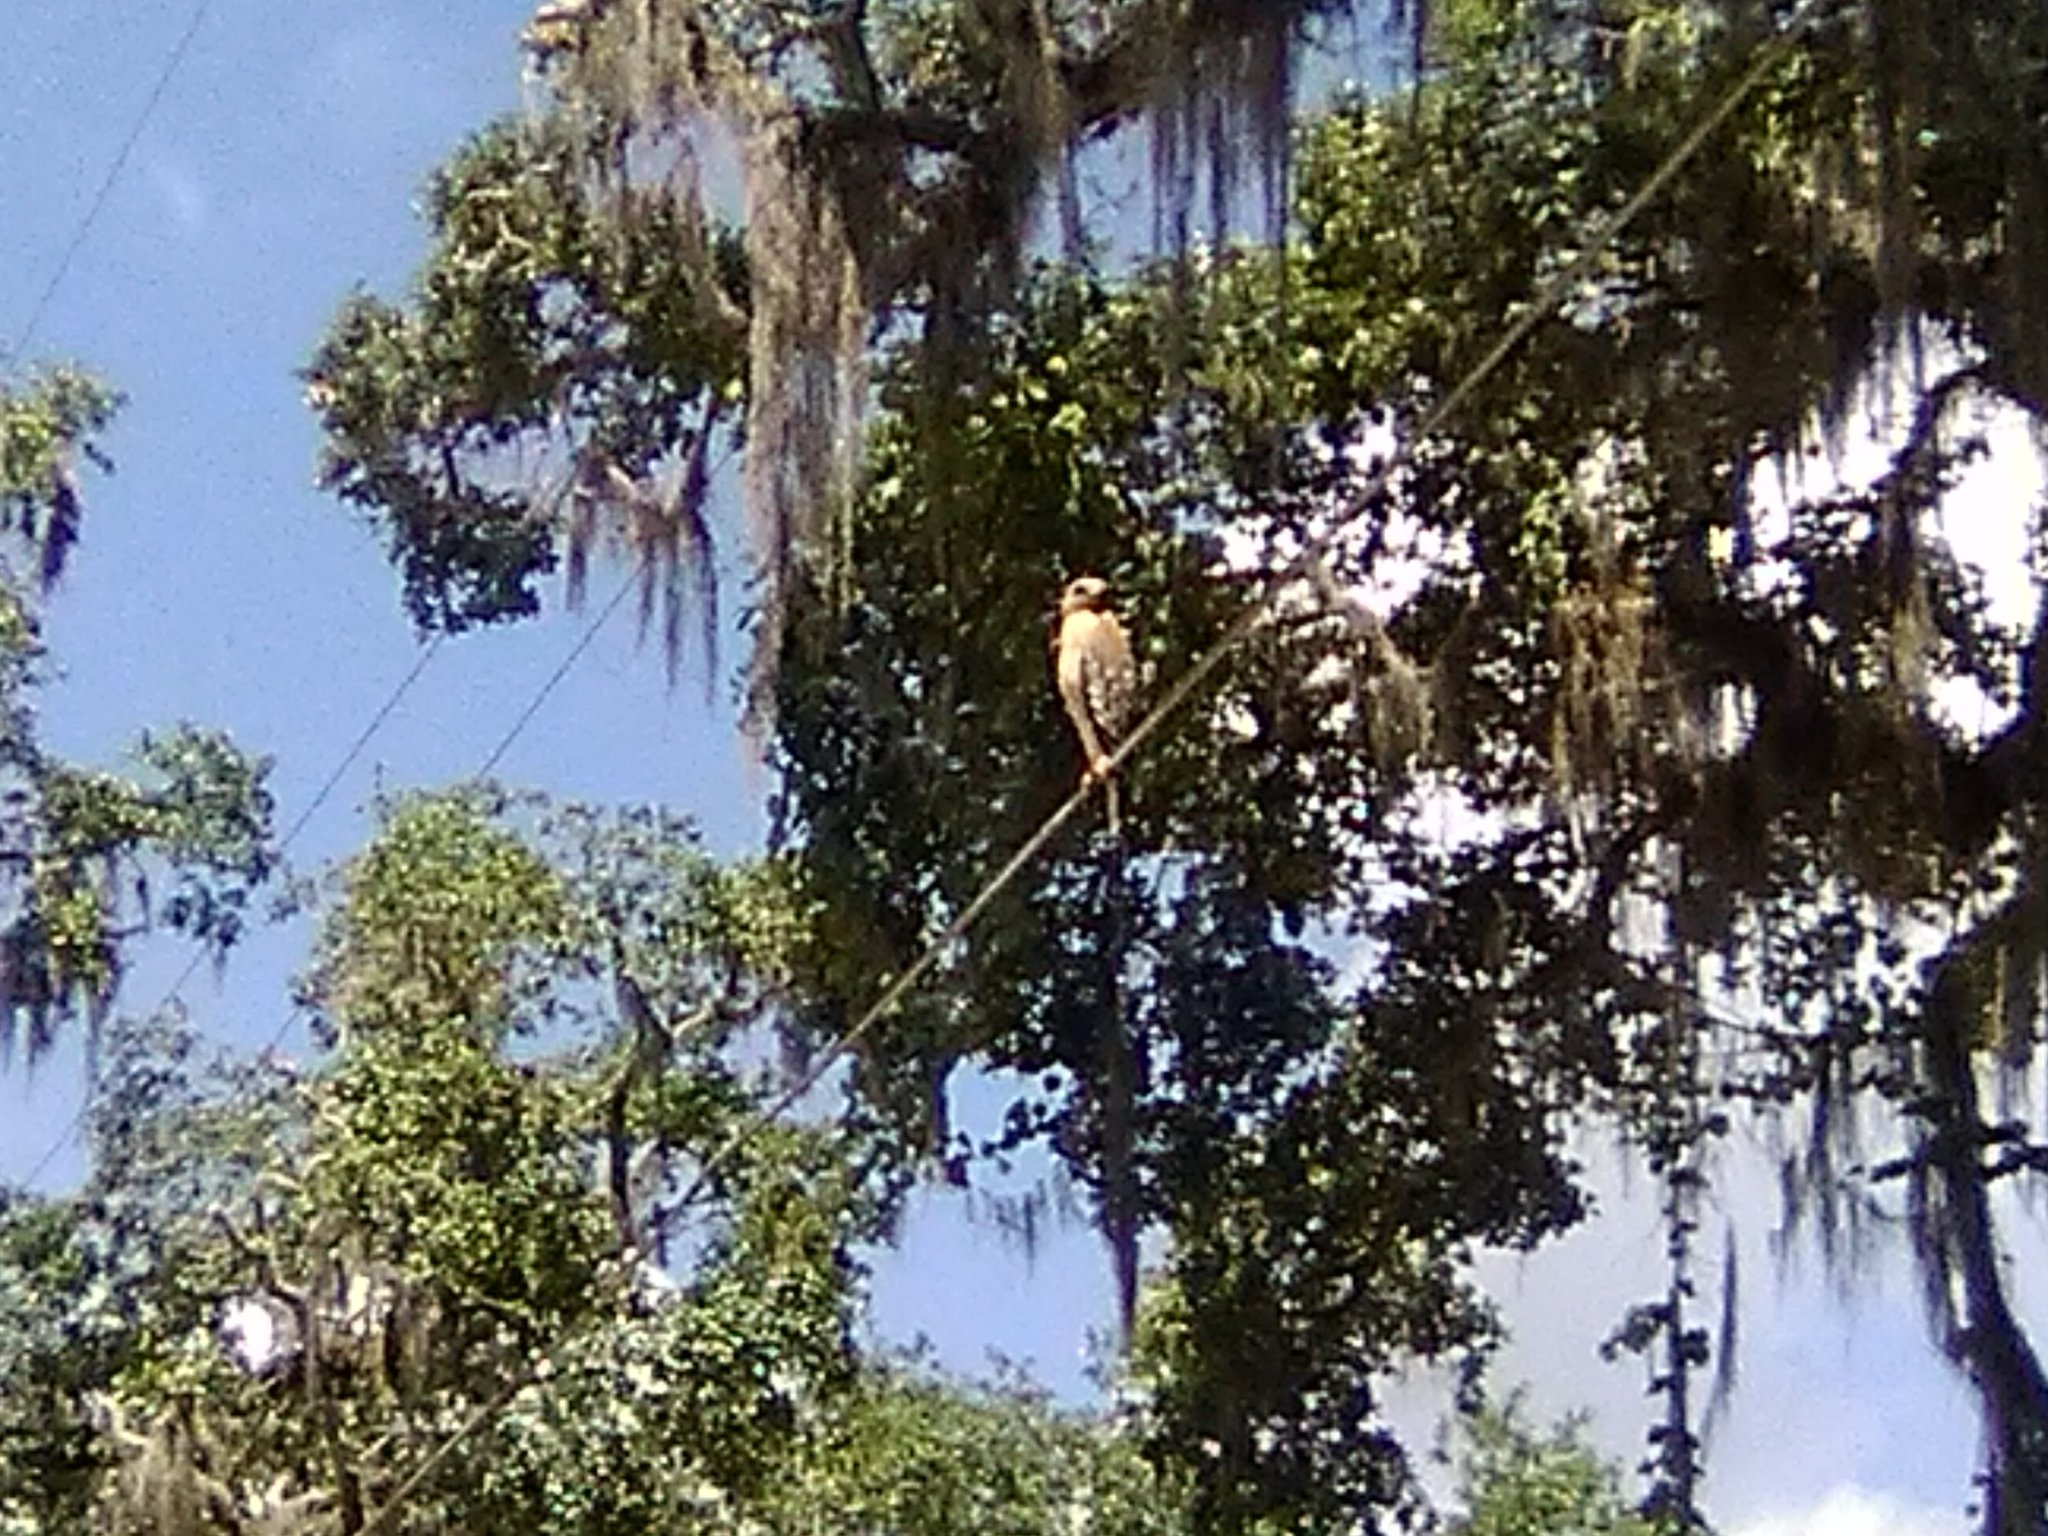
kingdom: Animalia
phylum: Chordata
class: Aves
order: Accipitriformes
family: Accipitridae
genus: Buteo
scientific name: Buteo lineatus
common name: Red-shouldered hawk
